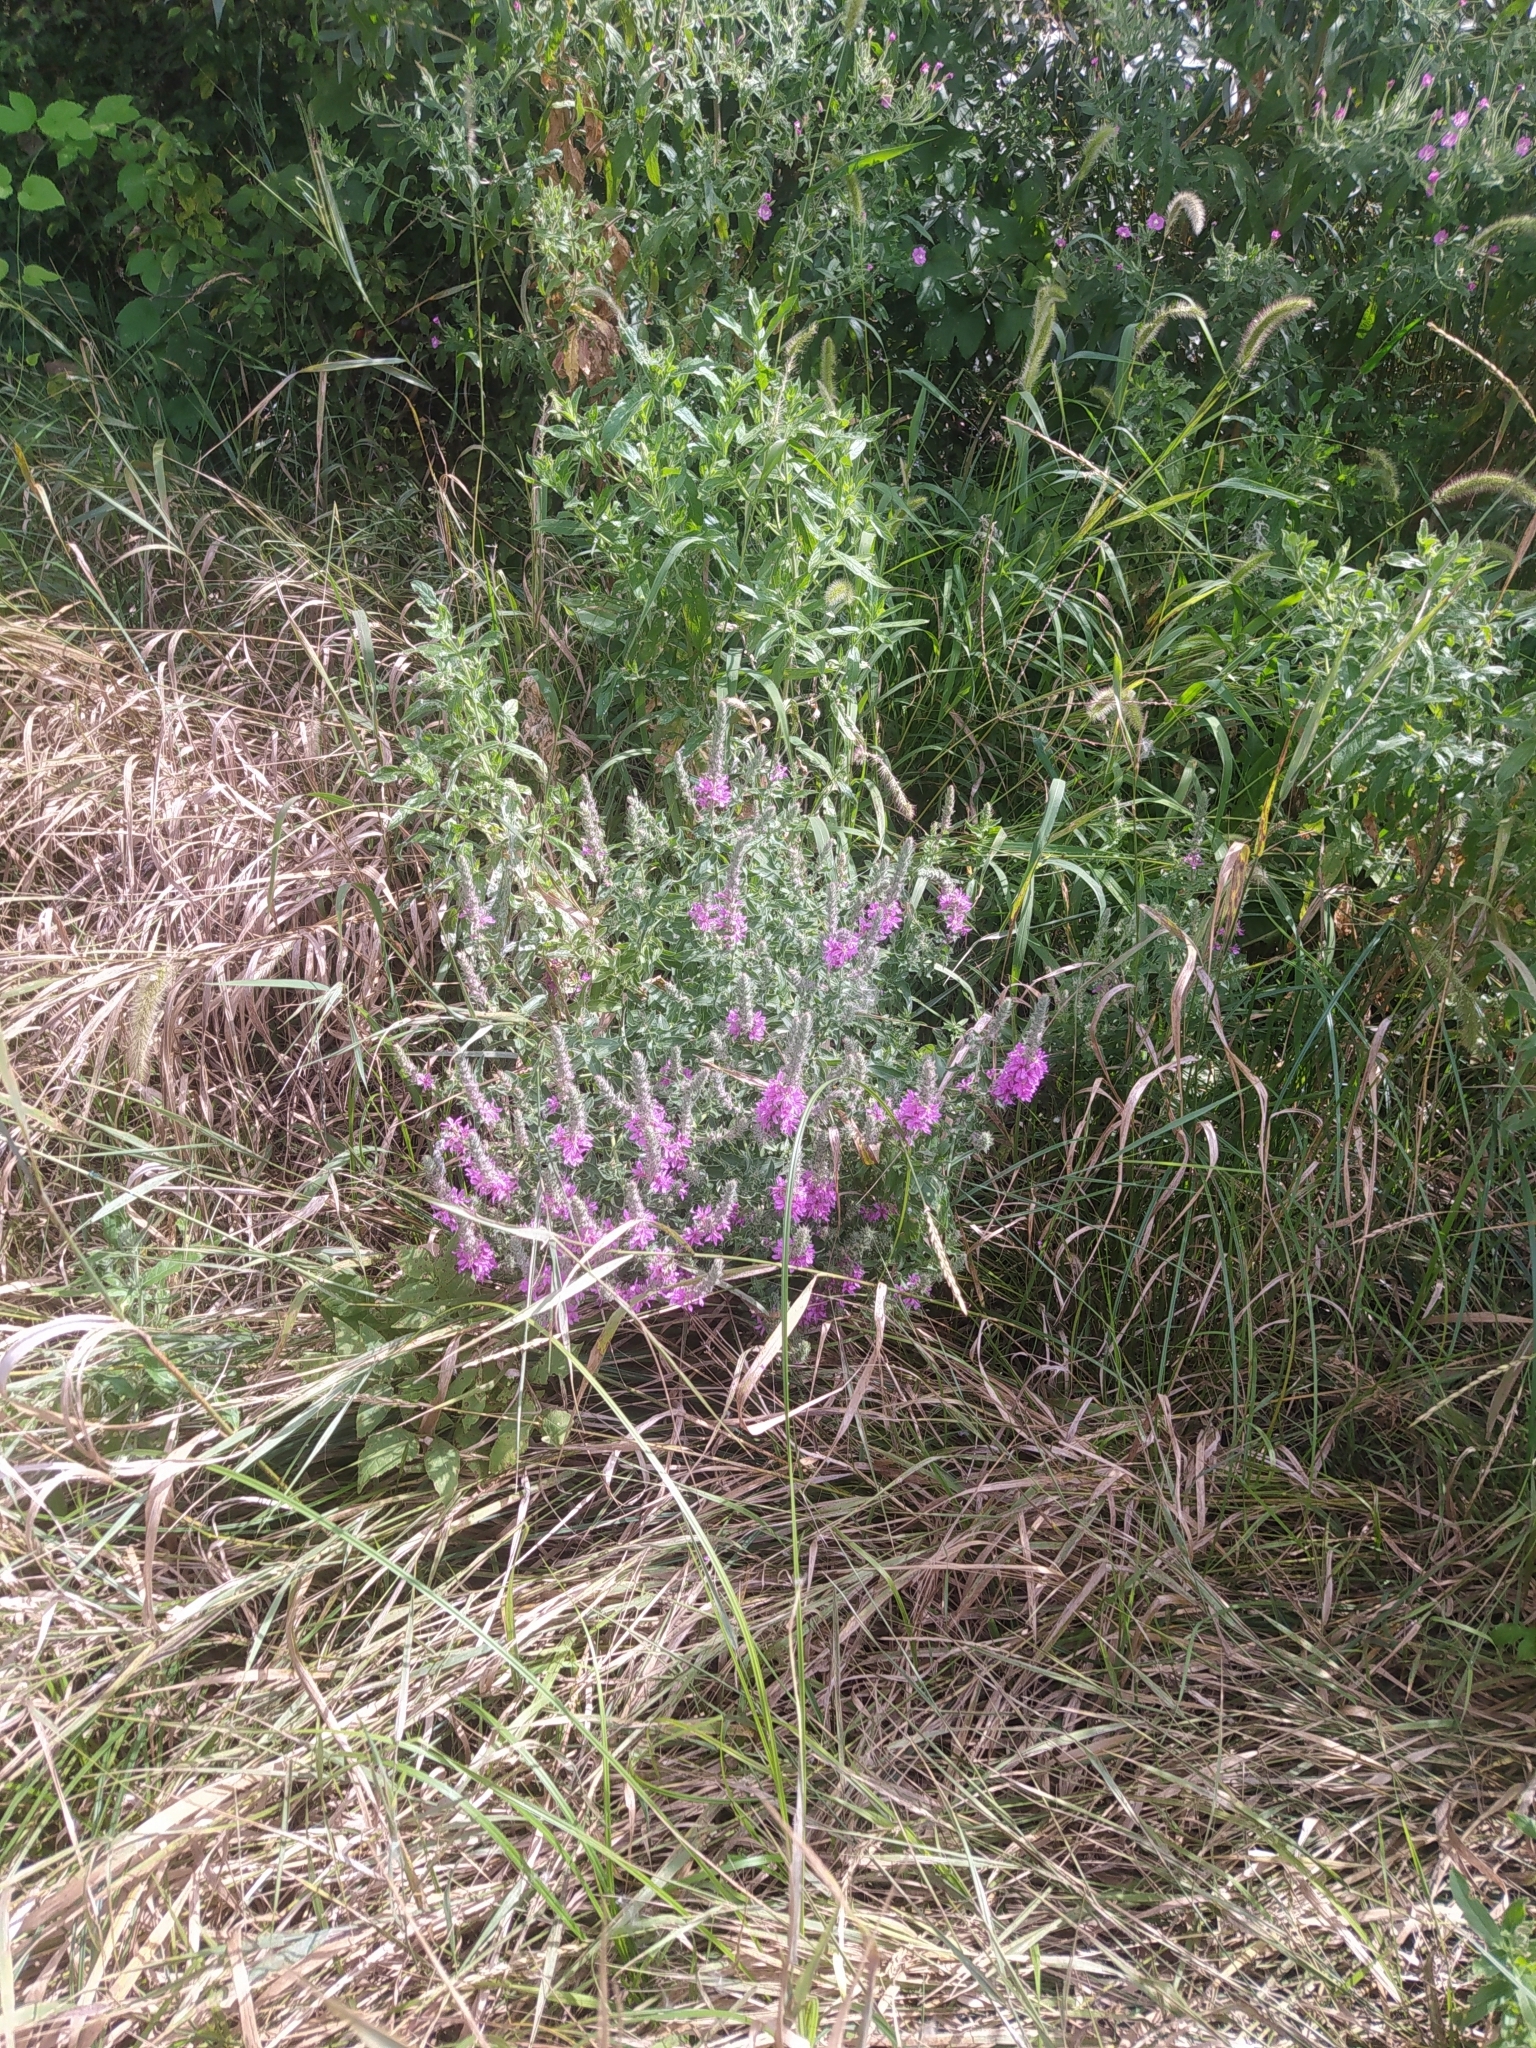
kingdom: Plantae
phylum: Tracheophyta
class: Magnoliopsida
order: Myrtales
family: Lythraceae
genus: Lythrum
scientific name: Lythrum salicaria
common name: Purple loosestrife
